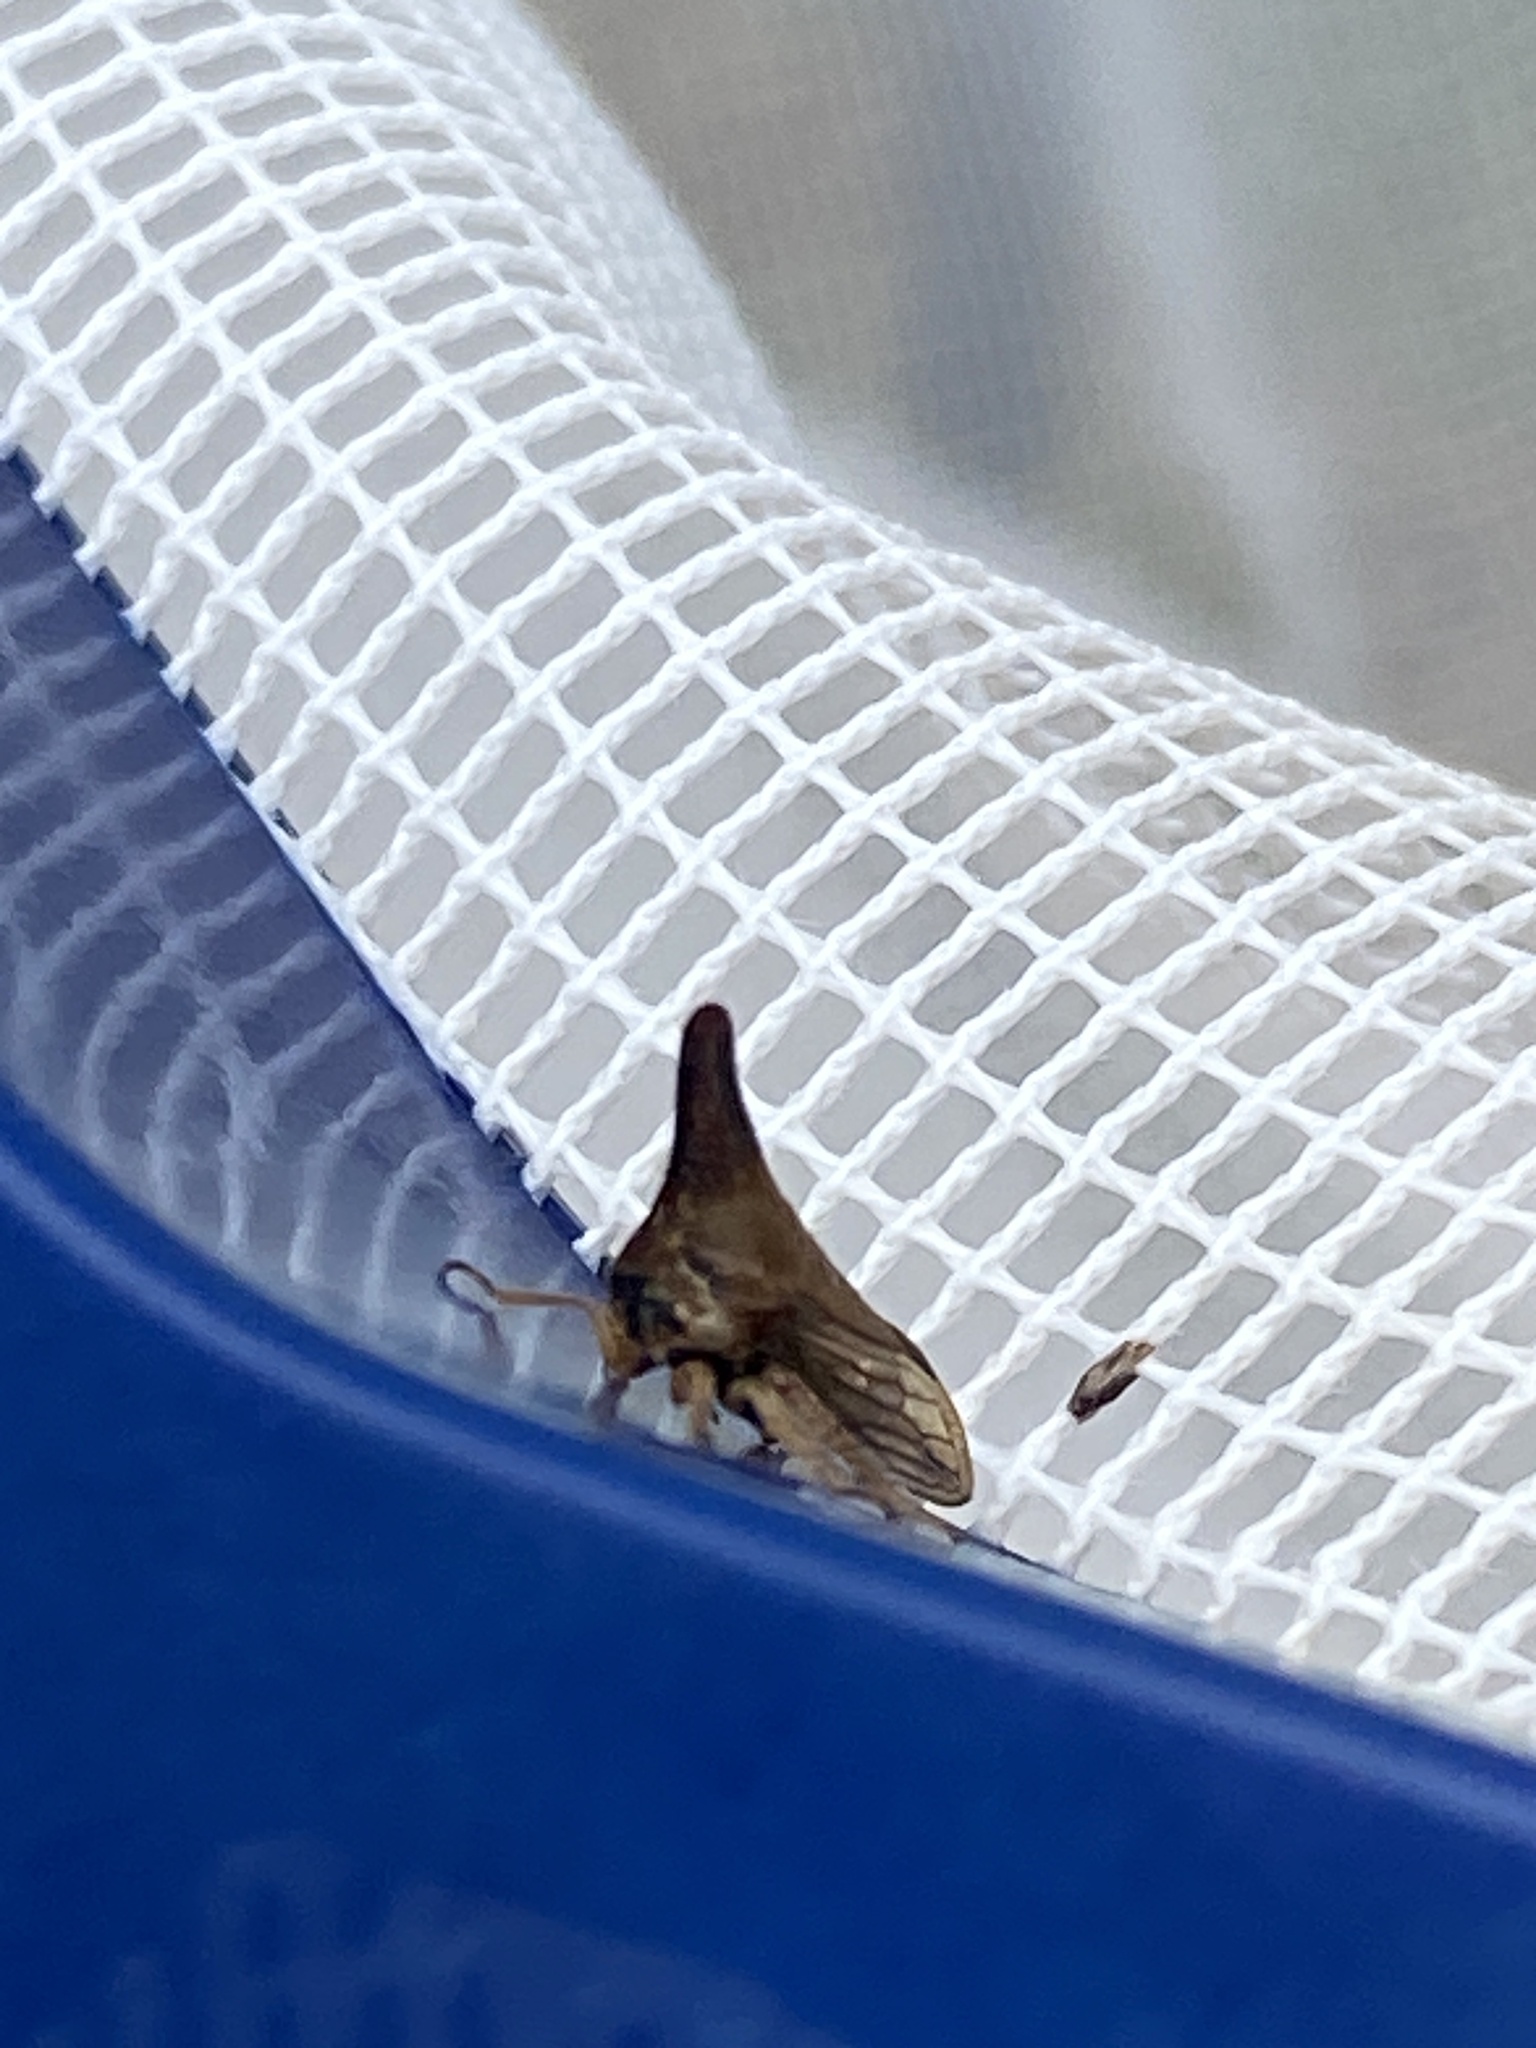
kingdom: Animalia
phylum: Arthropoda
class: Insecta
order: Hemiptera
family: Membracidae
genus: Aconophora
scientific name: Aconophora compressa
